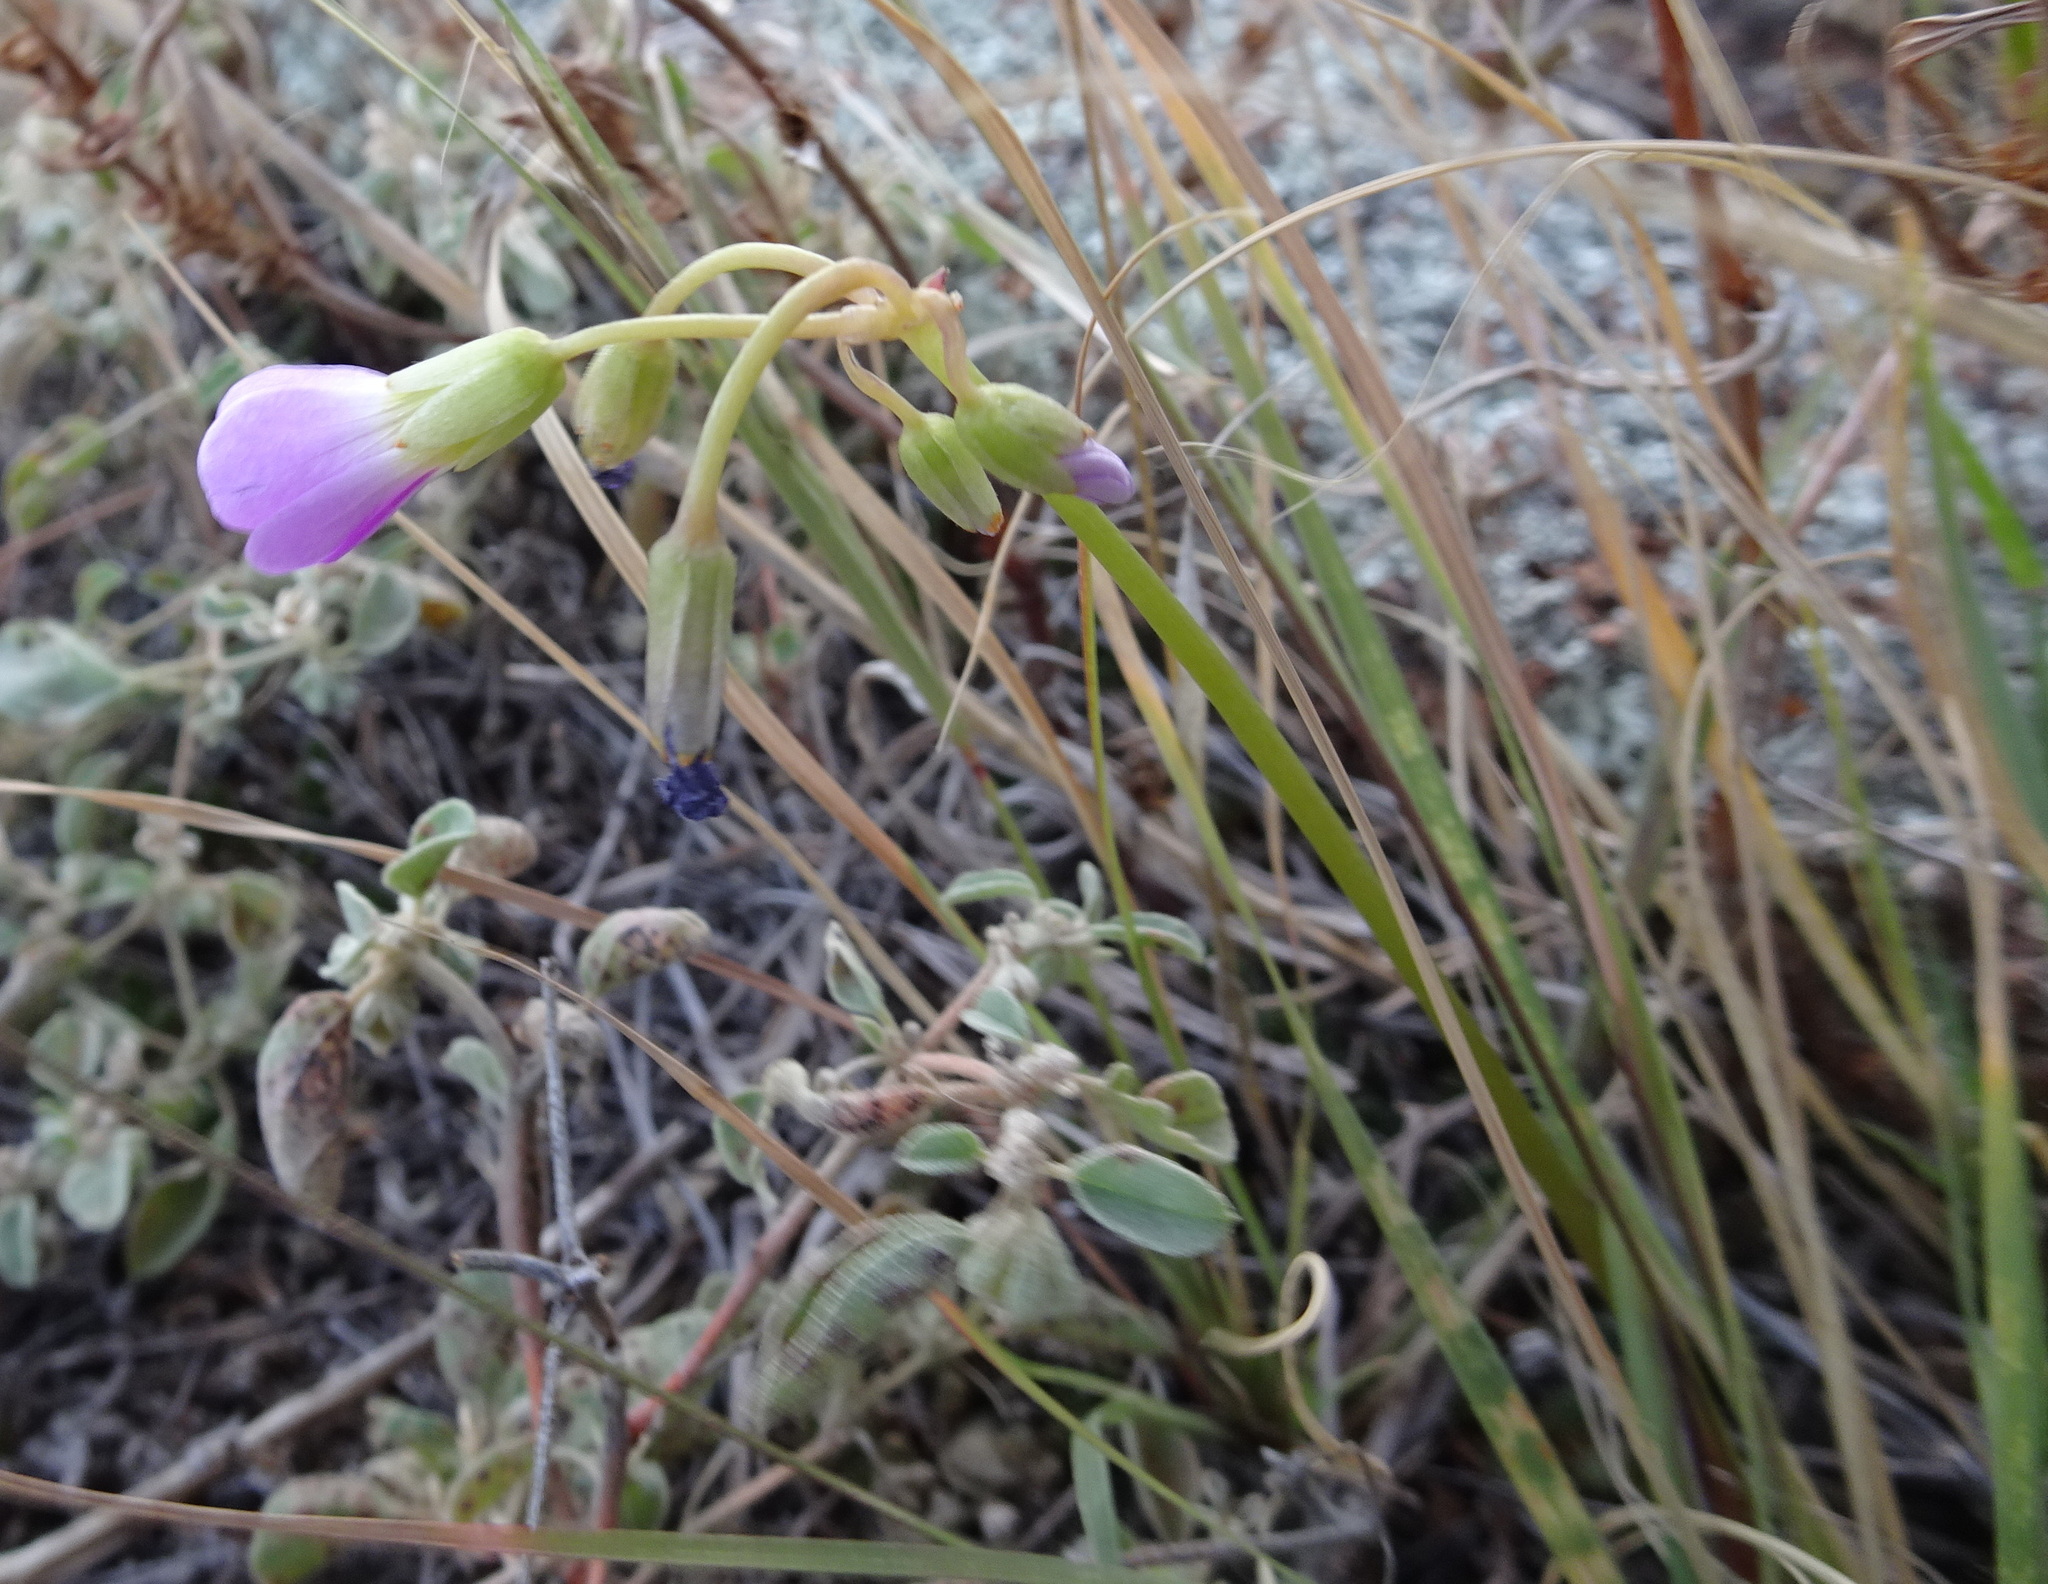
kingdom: Plantae
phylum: Tracheophyta
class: Magnoliopsida
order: Oxalidales
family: Oxalidaceae
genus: Oxalis
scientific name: Oxalis violacea
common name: Violet wood-sorrel
